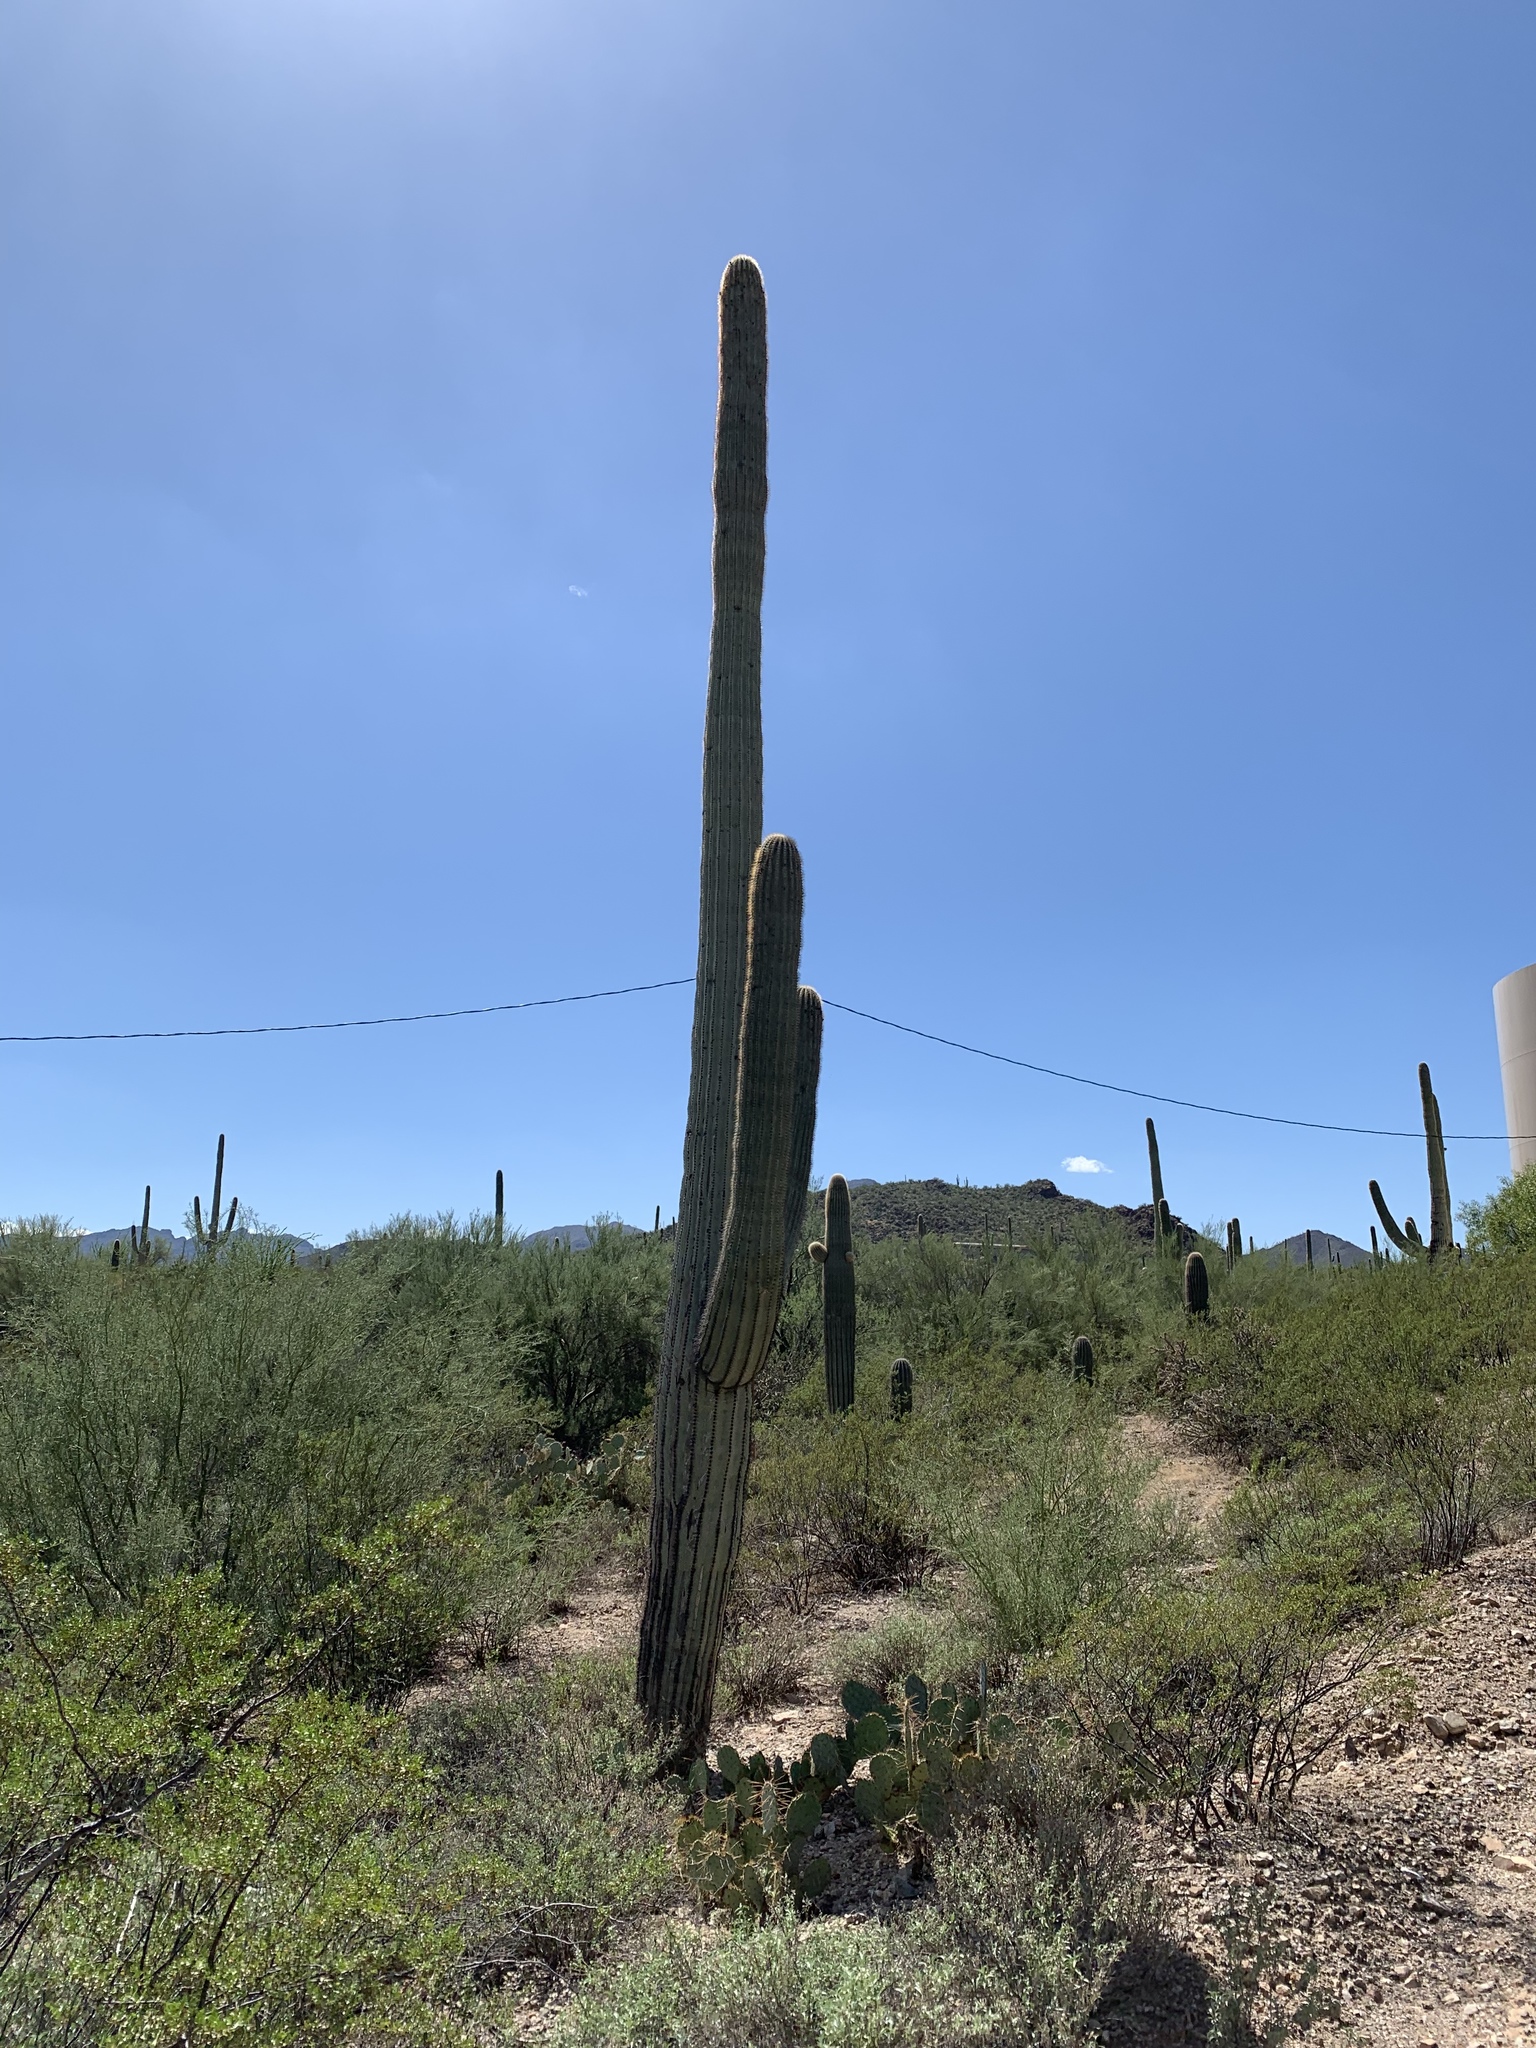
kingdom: Plantae
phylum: Tracheophyta
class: Magnoliopsida
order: Caryophyllales
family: Cactaceae
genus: Carnegiea
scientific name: Carnegiea gigantea
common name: Saguaro
